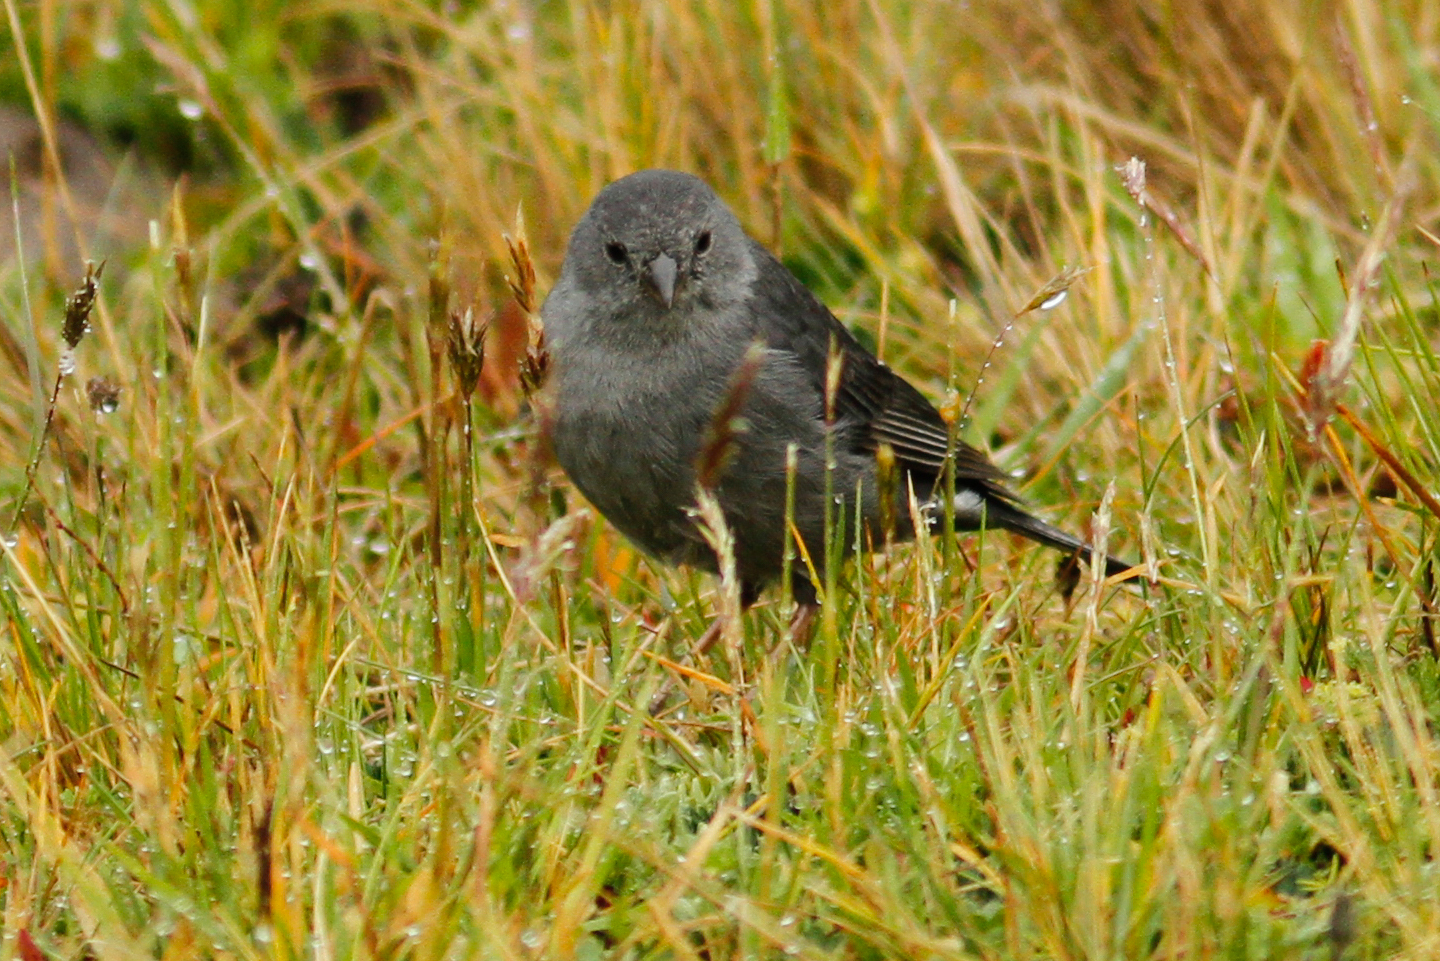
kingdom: Animalia
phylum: Chordata
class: Aves
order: Passeriformes
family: Thraupidae
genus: Geospizopsis
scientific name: Geospizopsis unicolor
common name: Plumbeous sierra-finch
